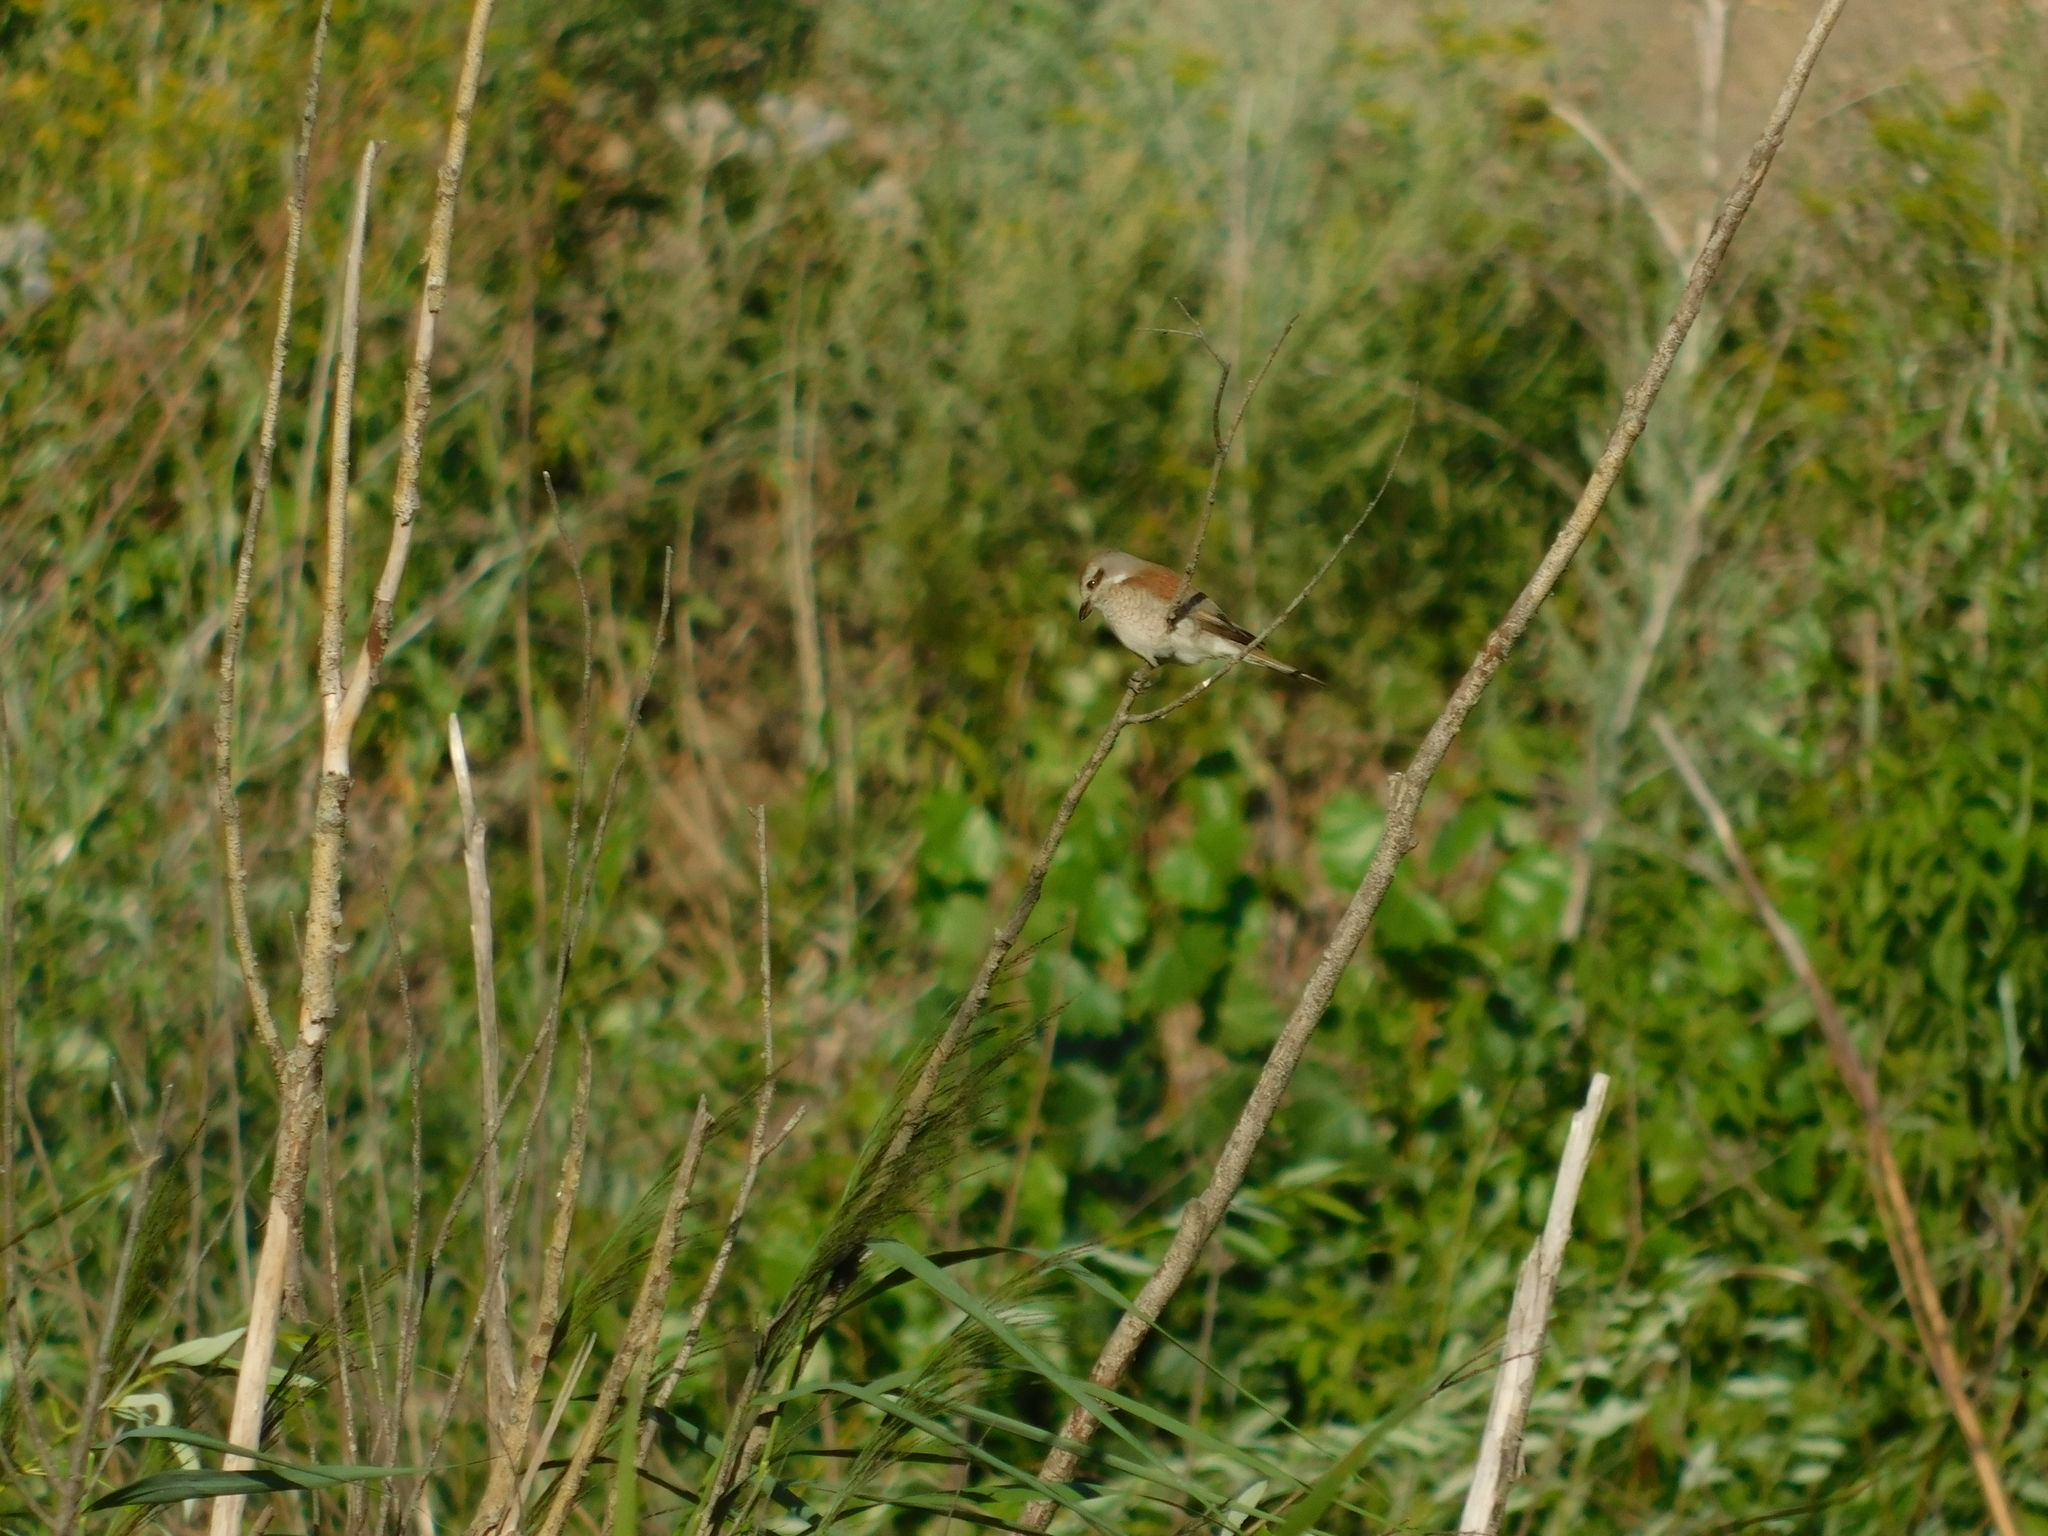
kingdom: Animalia
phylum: Chordata
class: Aves
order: Passeriformes
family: Laniidae
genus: Lanius
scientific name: Lanius collurio
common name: Red-backed shrike
